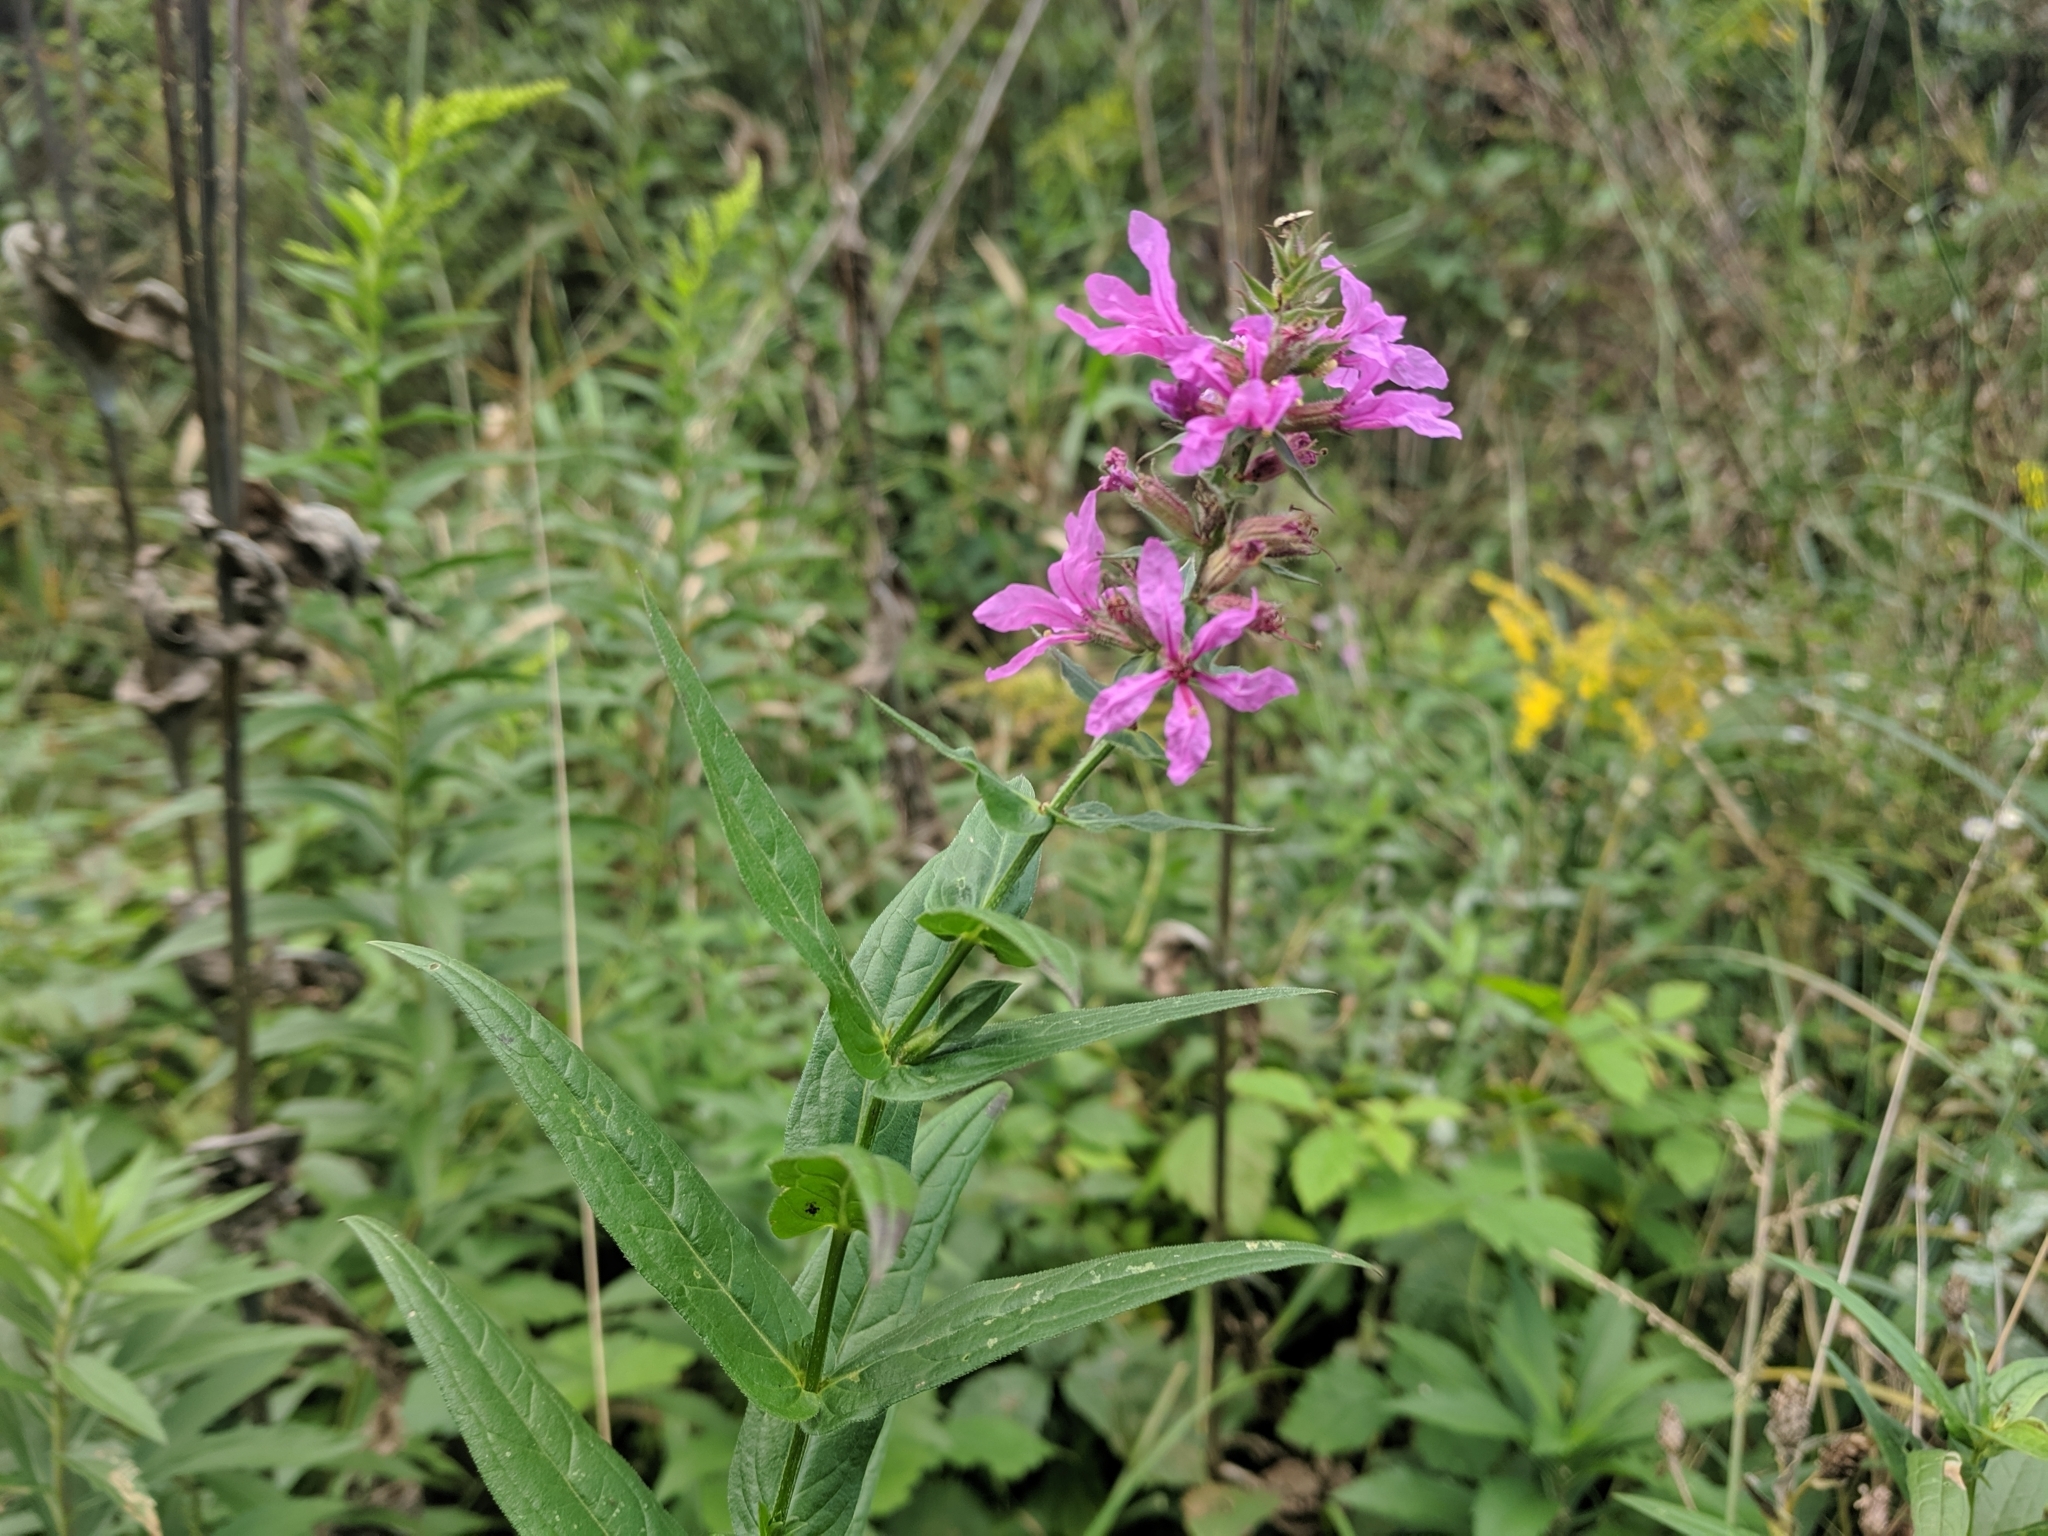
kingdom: Plantae
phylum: Tracheophyta
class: Magnoliopsida
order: Myrtales
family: Lythraceae
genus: Lythrum
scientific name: Lythrum salicaria
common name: Purple loosestrife
